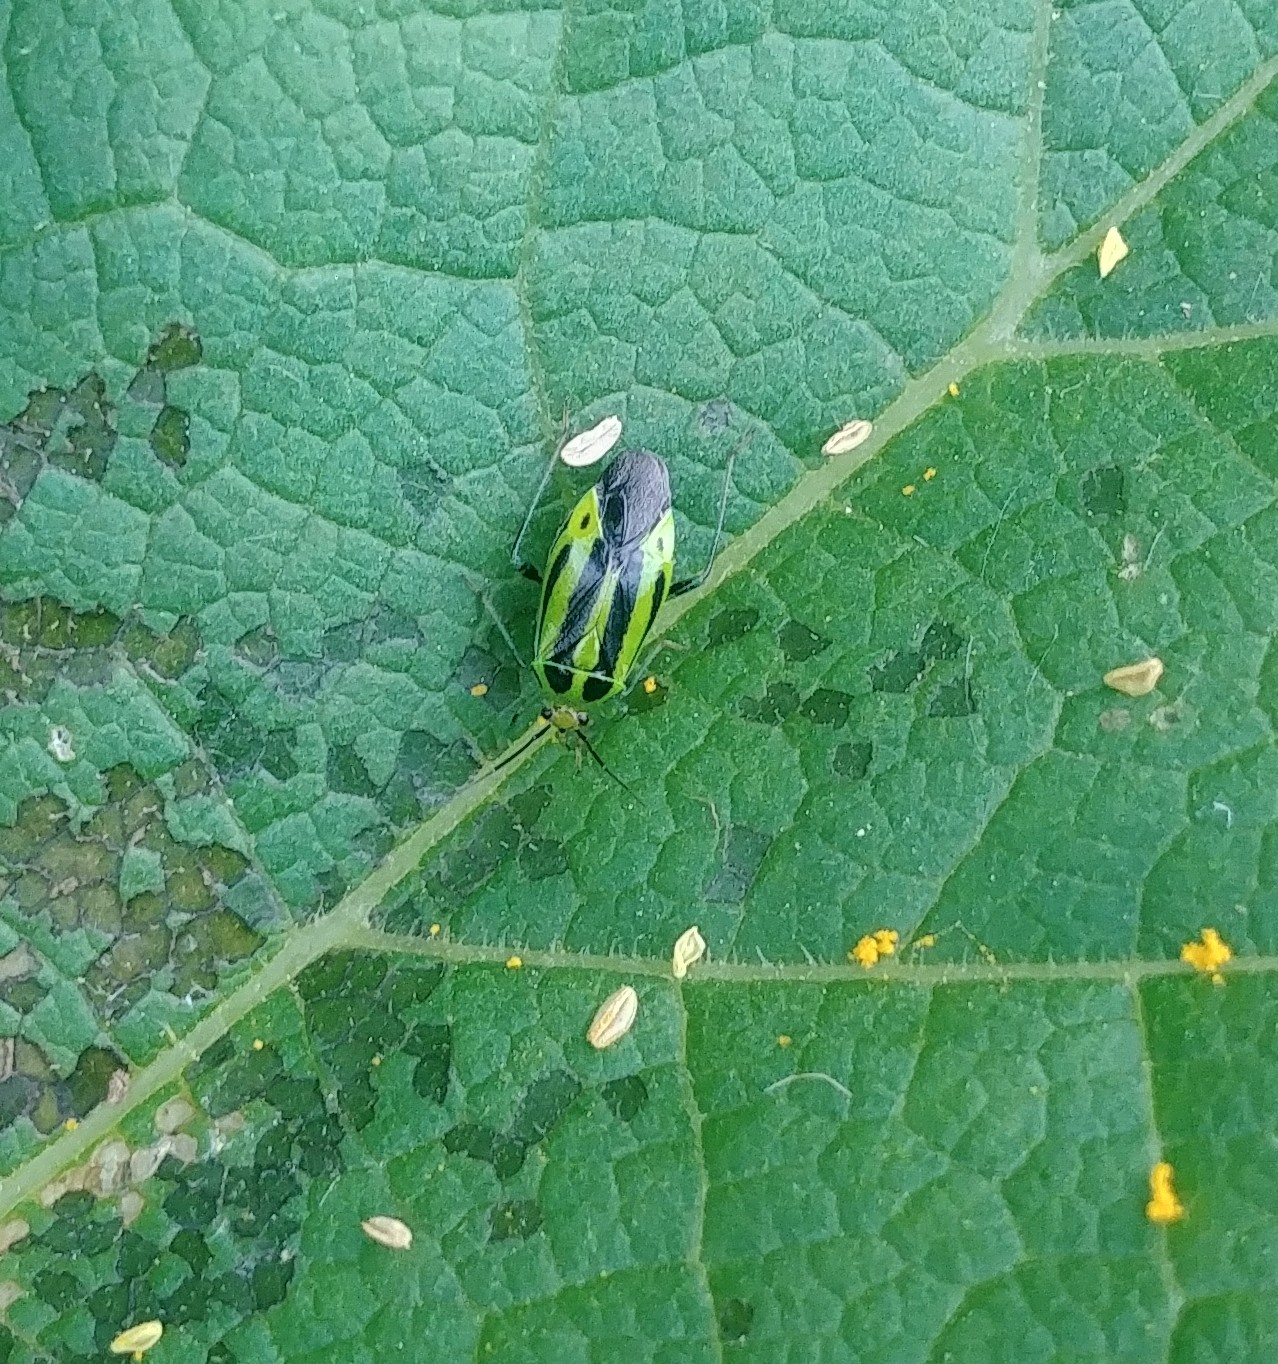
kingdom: Animalia
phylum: Arthropoda
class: Insecta
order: Hemiptera
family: Miridae
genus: Poecilocapsus
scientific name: Poecilocapsus lineatus
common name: Four-lined plant bug
